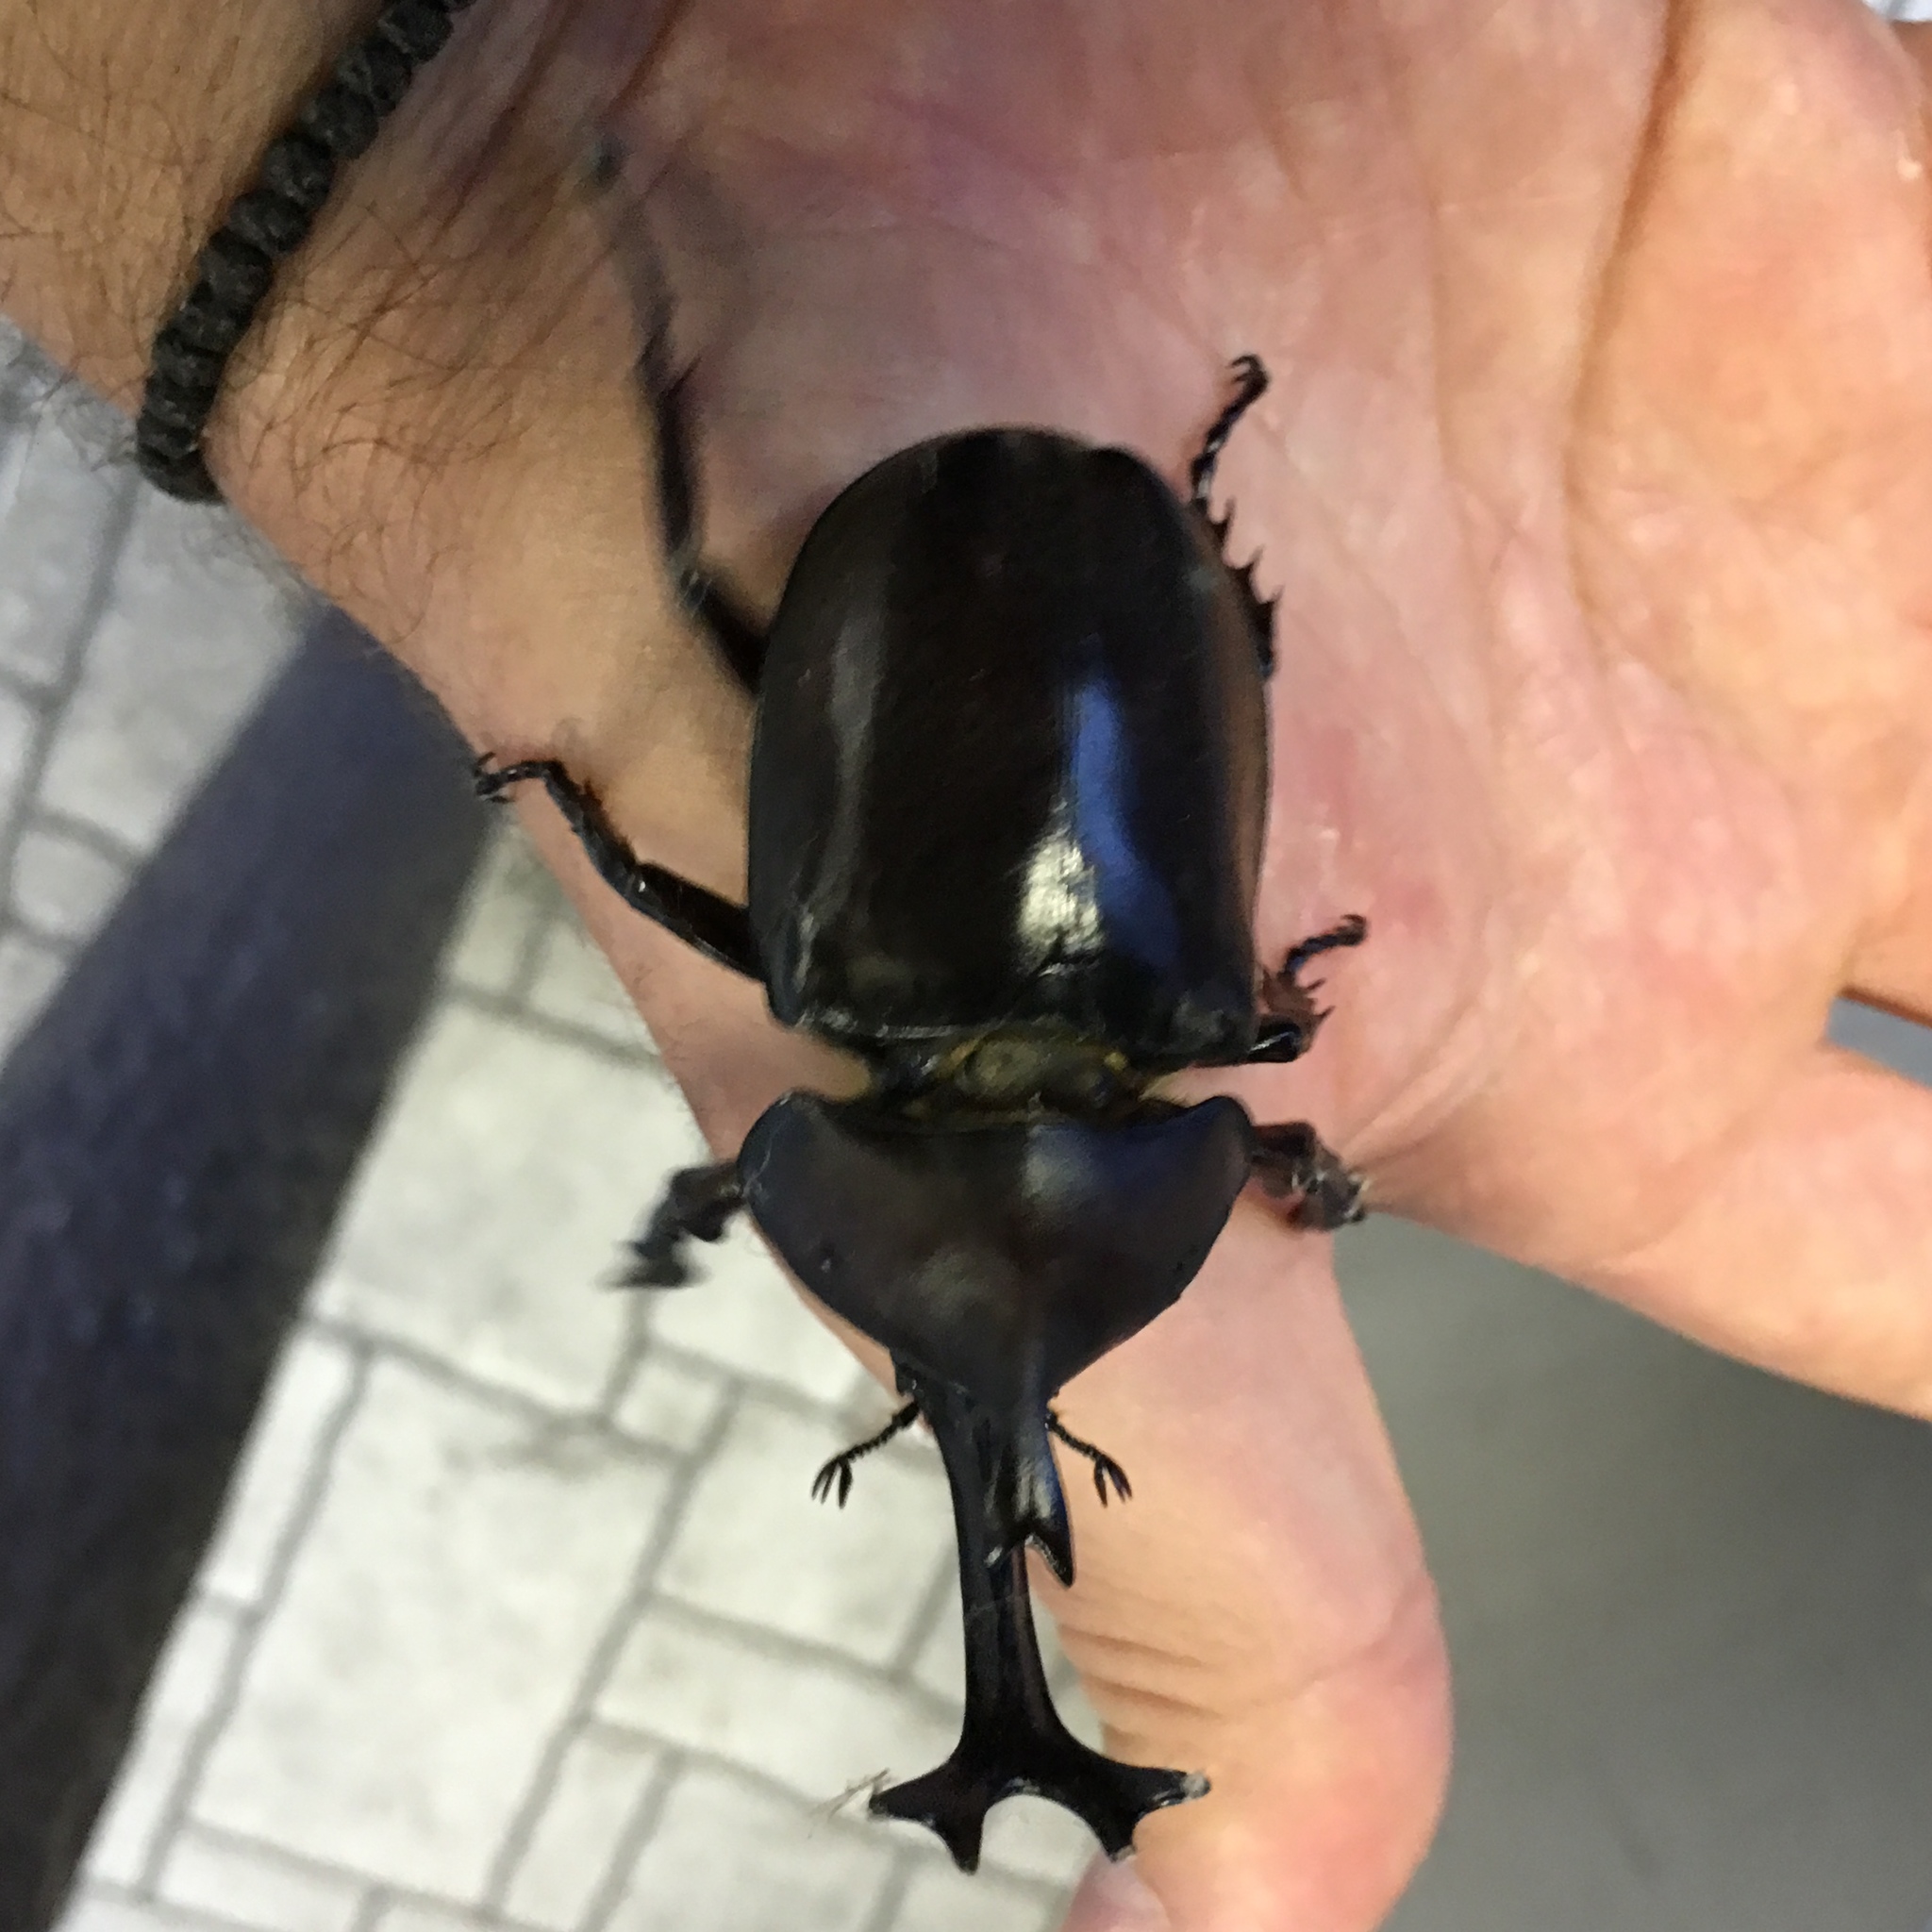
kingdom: Animalia
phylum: Arthropoda
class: Insecta
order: Coleoptera
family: Scarabaeidae
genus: Trypoxylus
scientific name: Trypoxylus dichotomus
